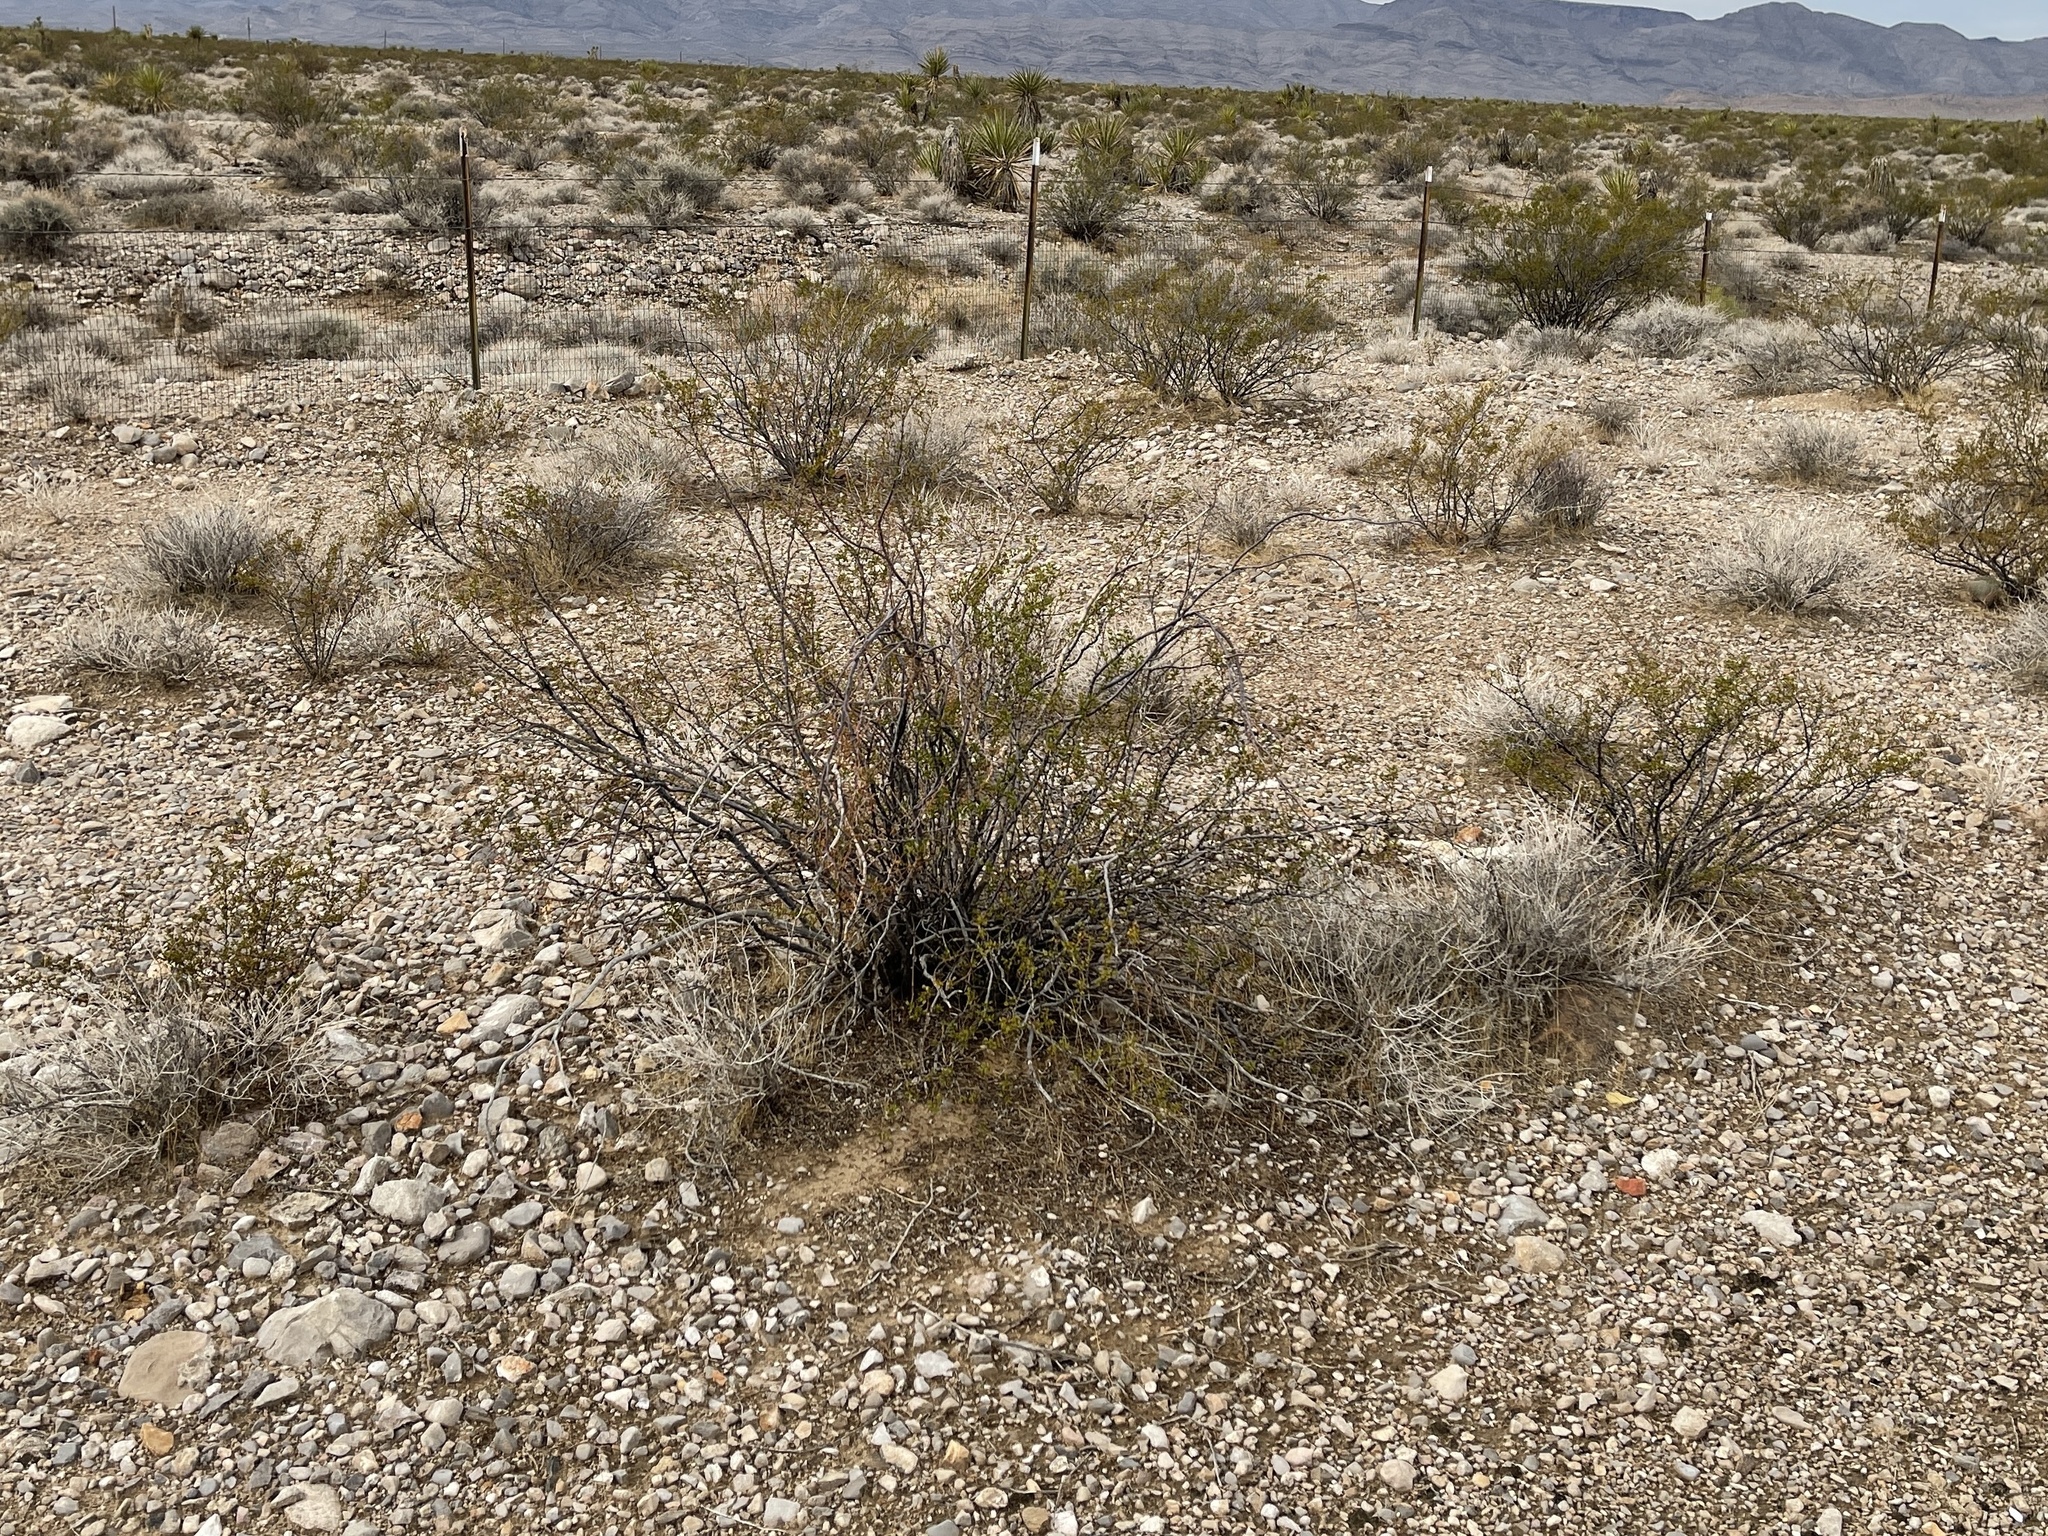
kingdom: Plantae
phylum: Tracheophyta
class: Magnoliopsida
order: Zygophyllales
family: Zygophyllaceae
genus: Larrea
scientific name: Larrea tridentata
